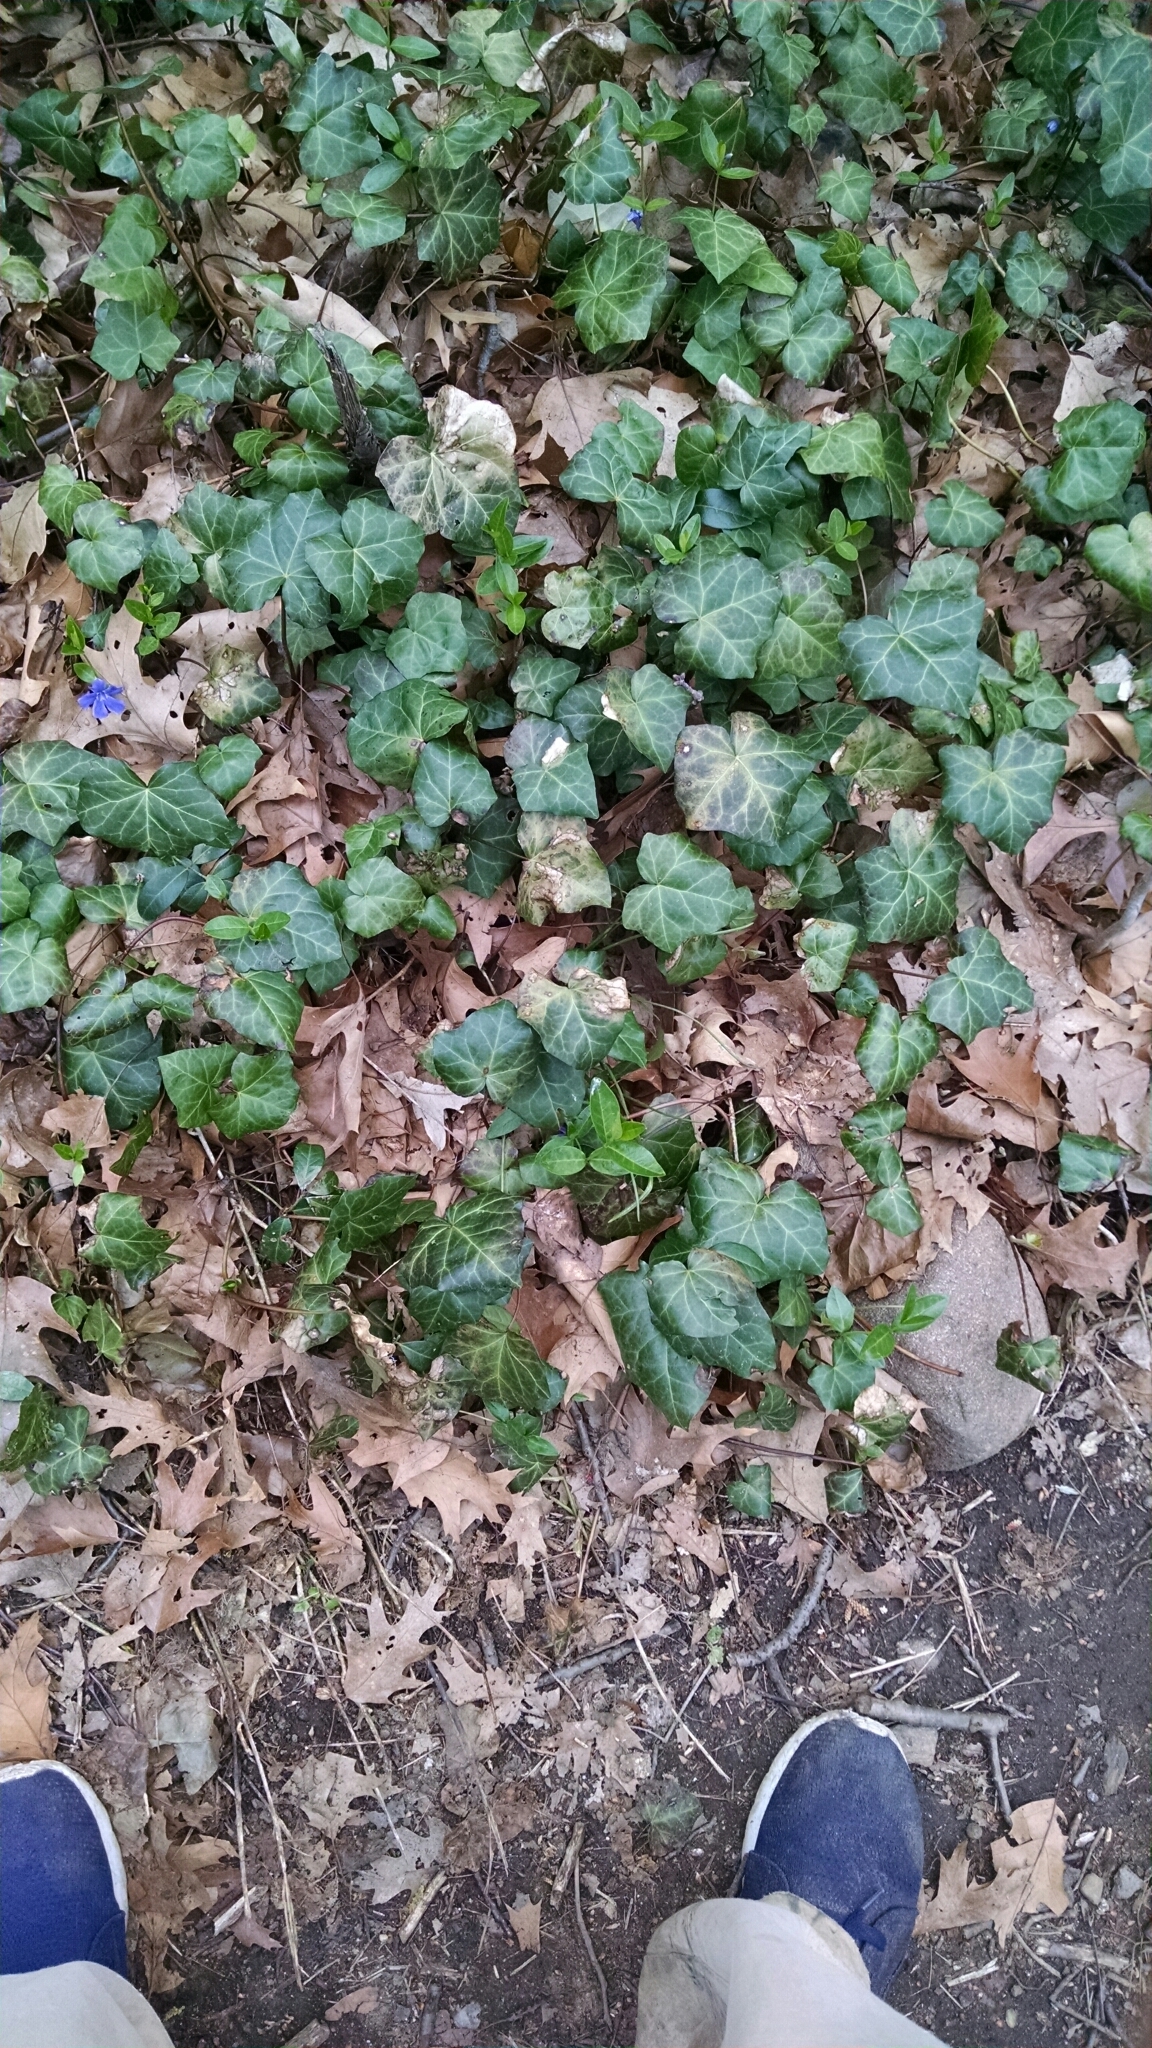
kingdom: Plantae
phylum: Tracheophyta
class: Magnoliopsida
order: Apiales
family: Araliaceae
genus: Hedera
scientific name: Hedera helix
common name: Ivy
